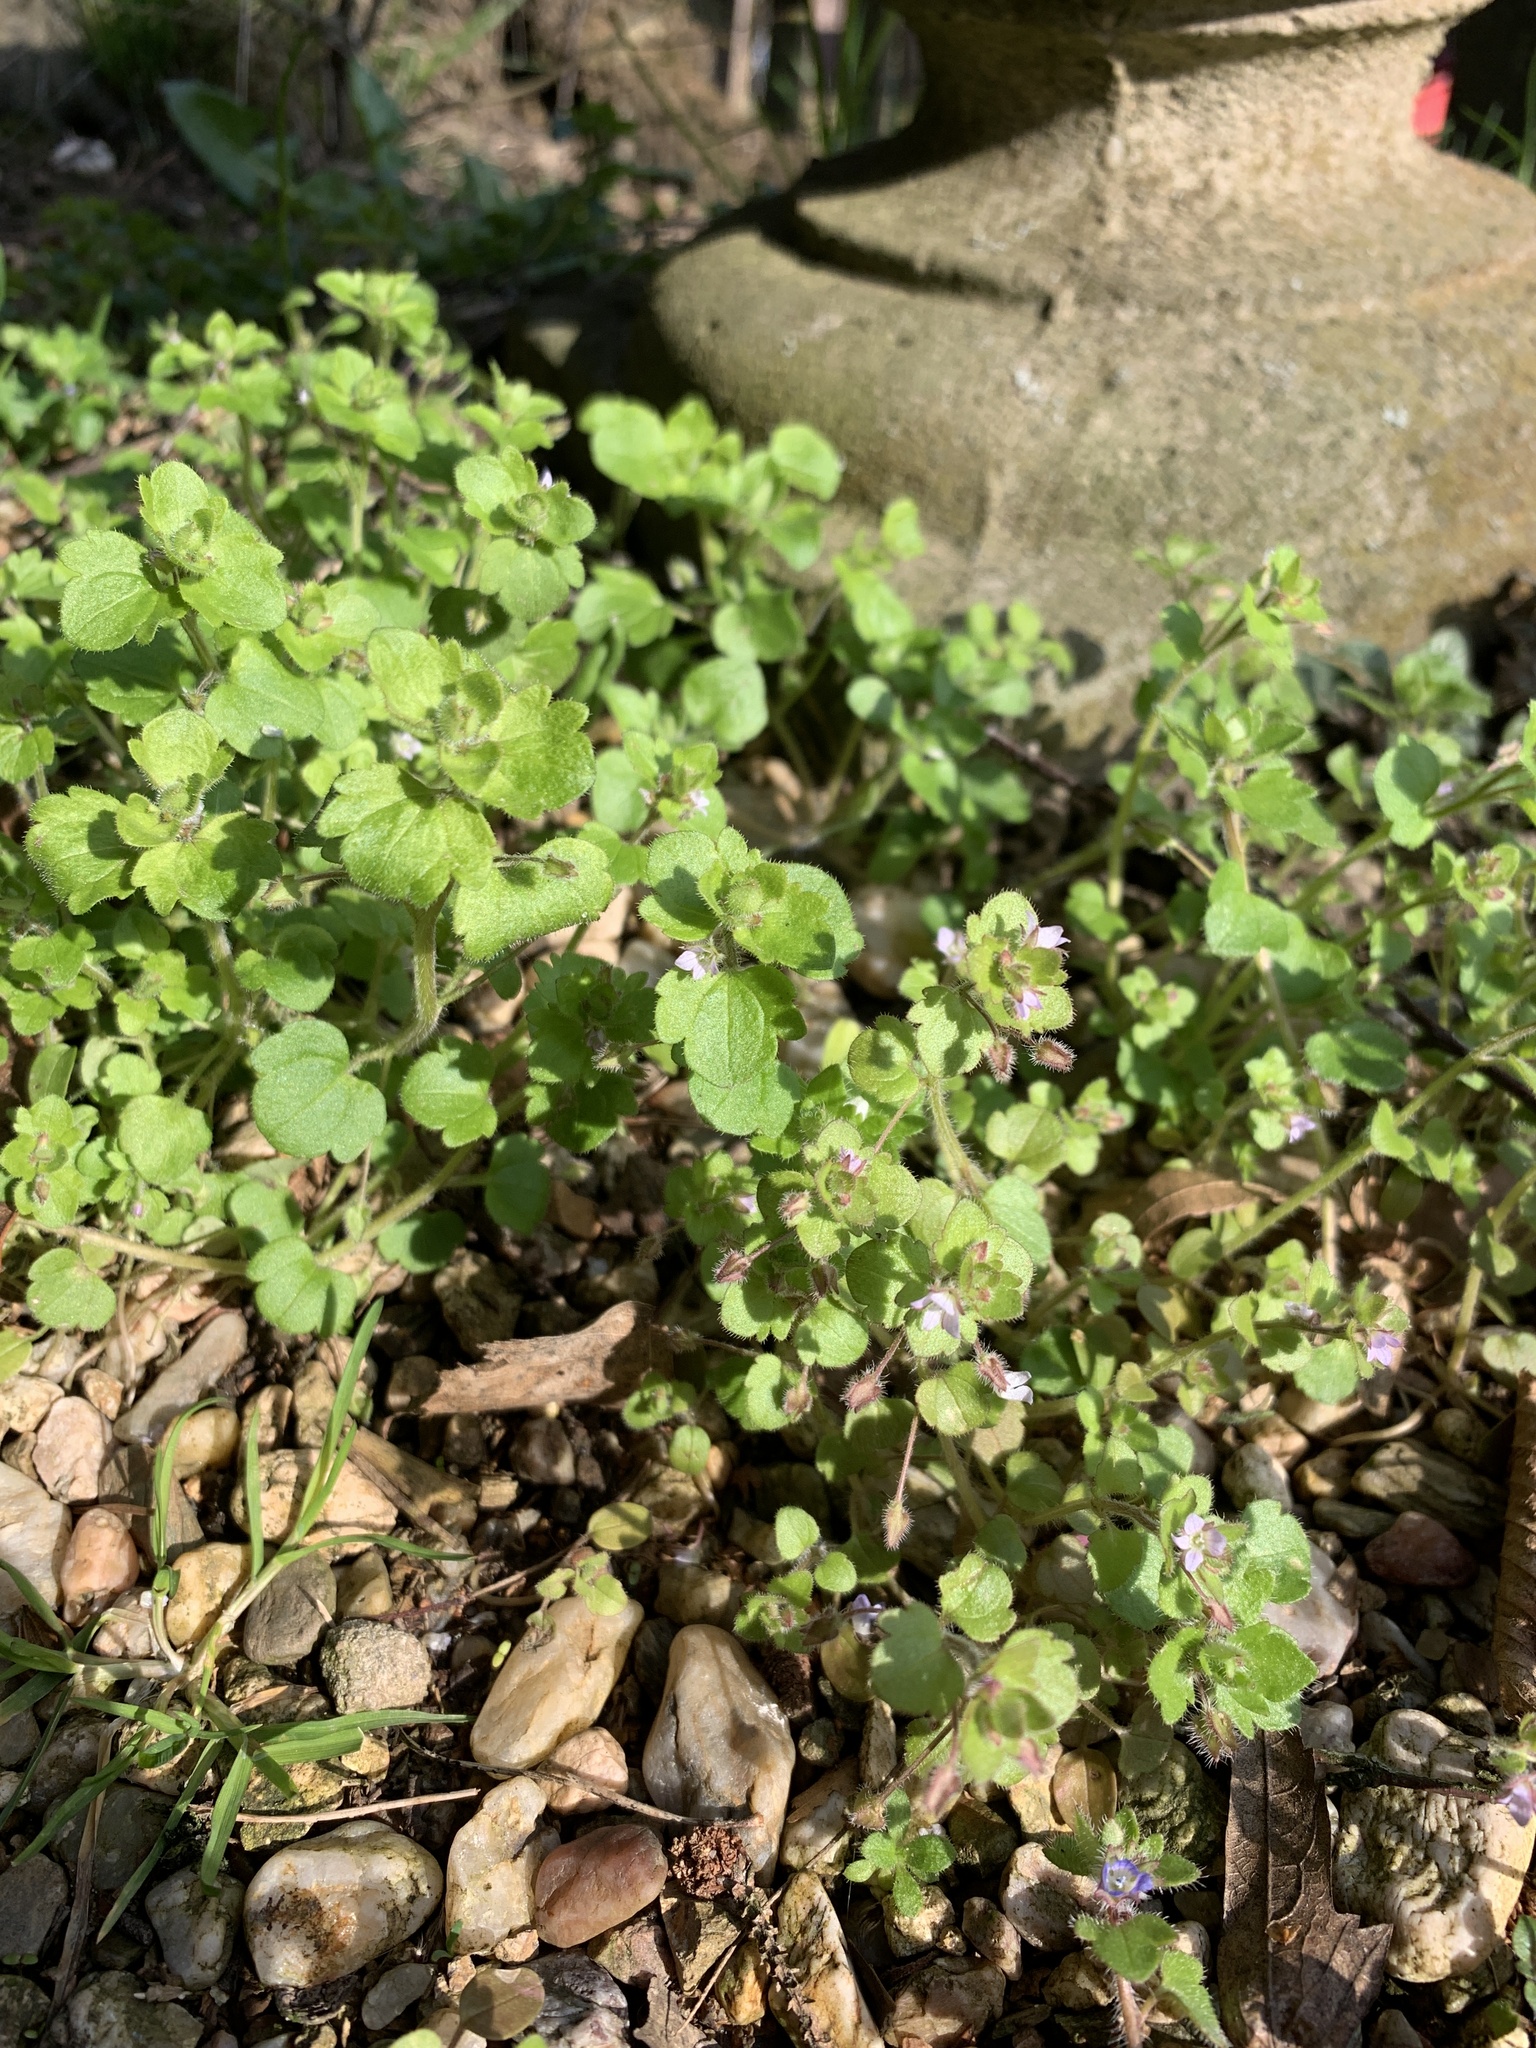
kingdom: Plantae
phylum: Tracheophyta
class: Magnoliopsida
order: Lamiales
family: Plantaginaceae
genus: Veronica
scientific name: Veronica sublobata
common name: False ivy-leaved speedwell
